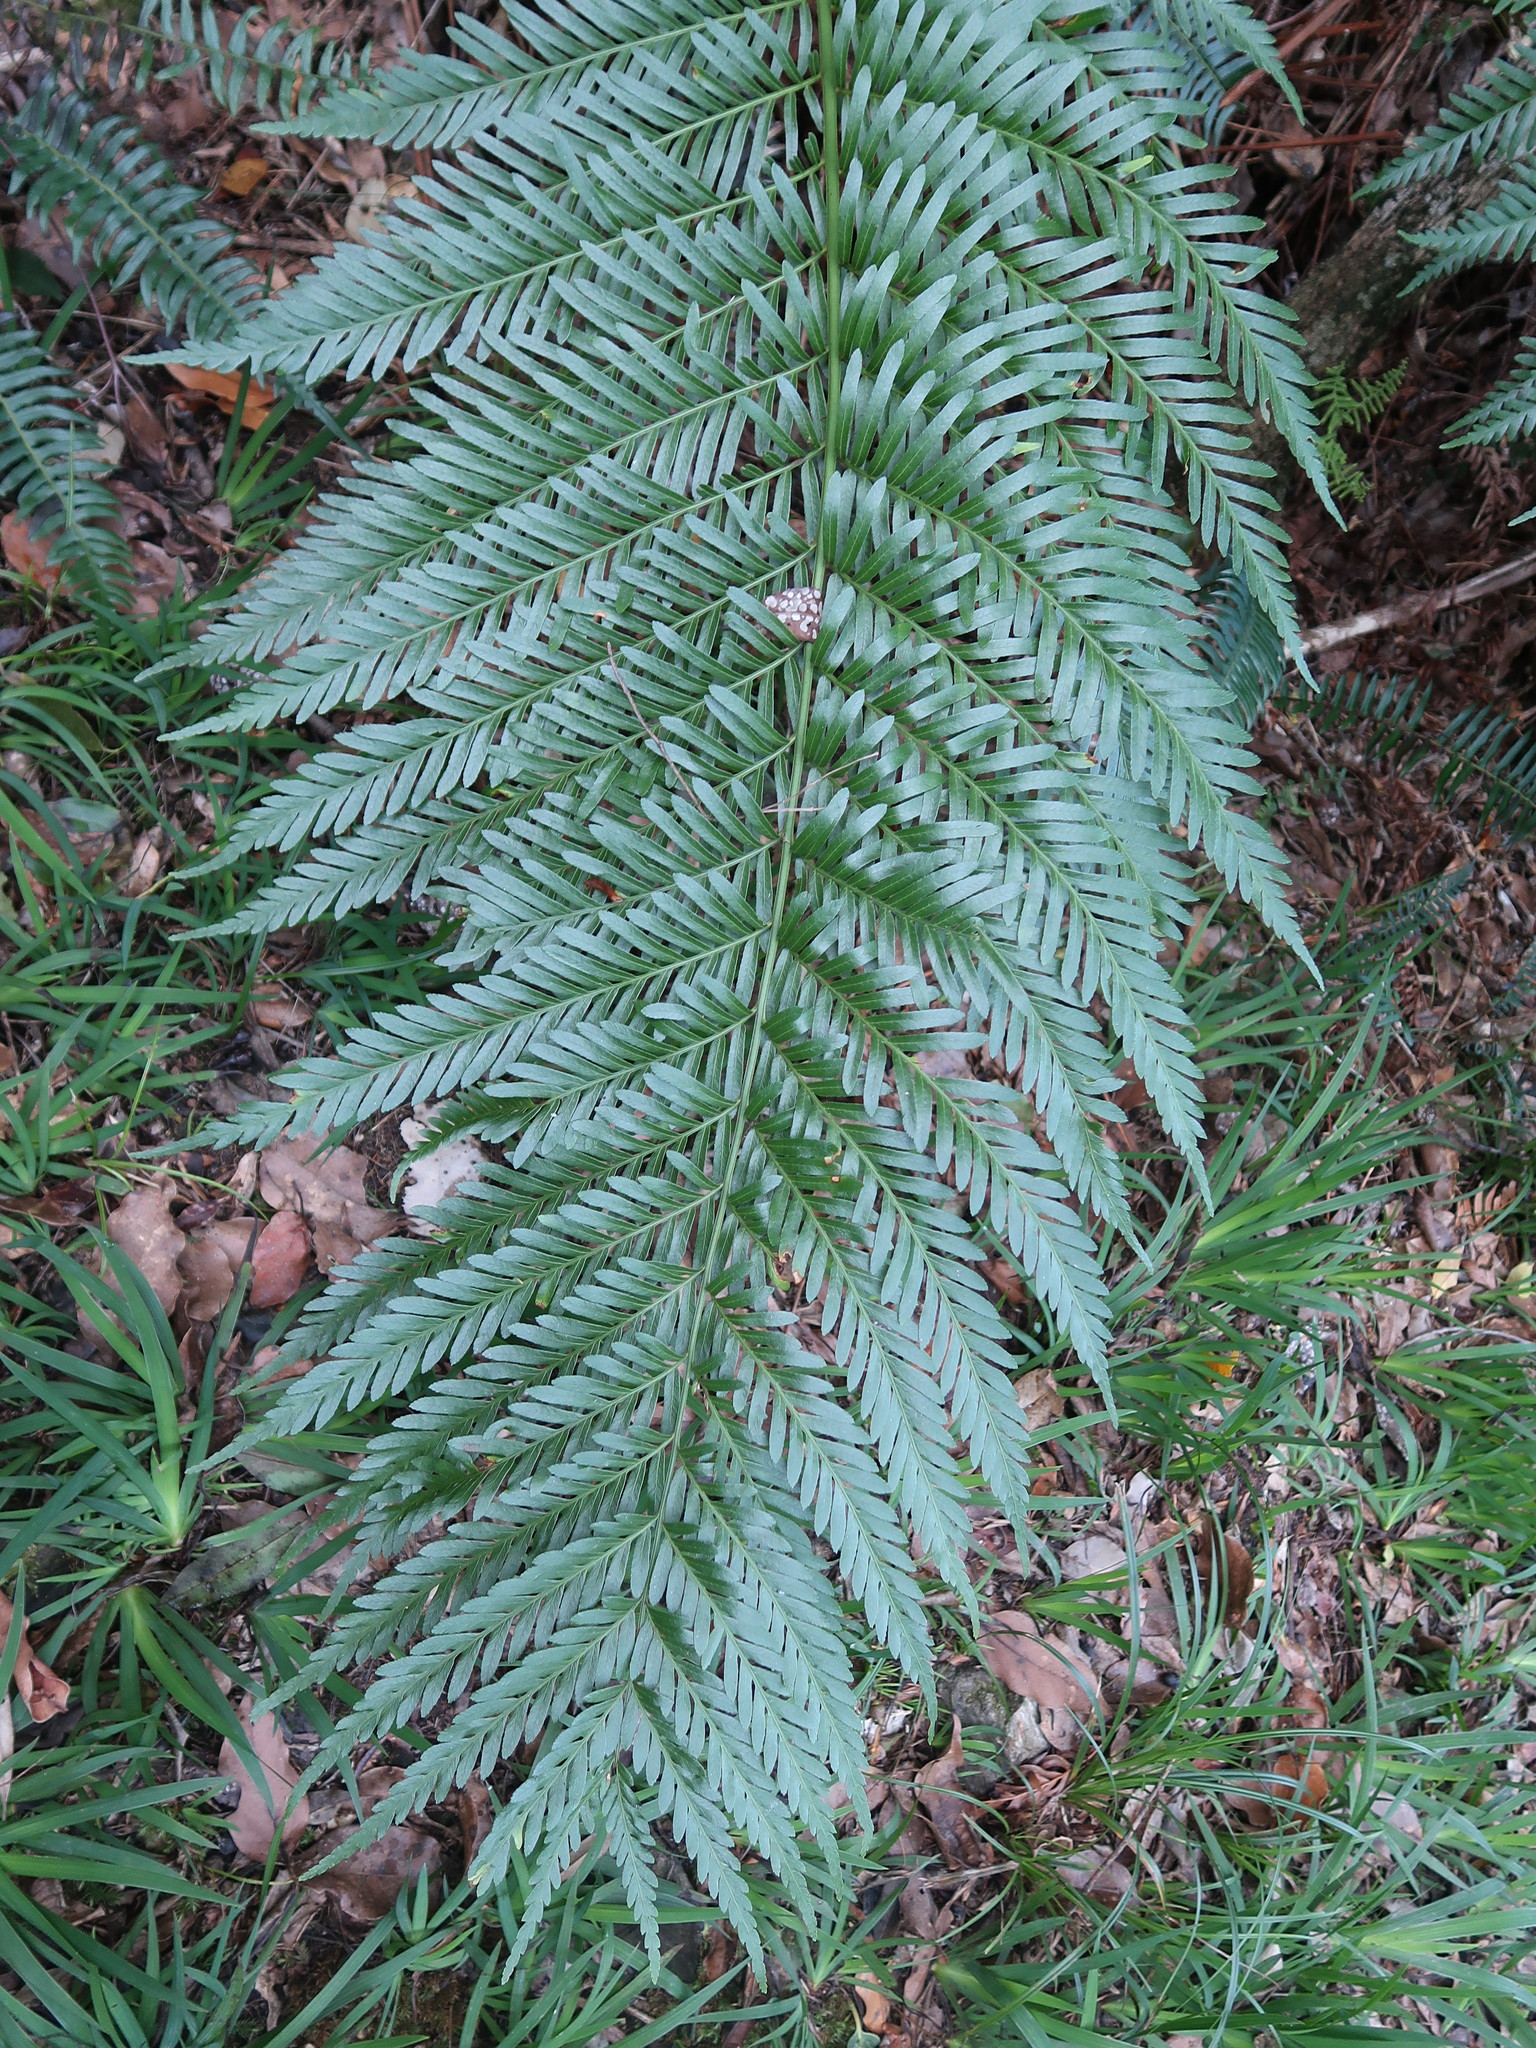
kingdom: Plantae
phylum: Tracheophyta
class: Polypodiopsida
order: Osmundales
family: Osmundaceae
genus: Todea
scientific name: Todea barbara
